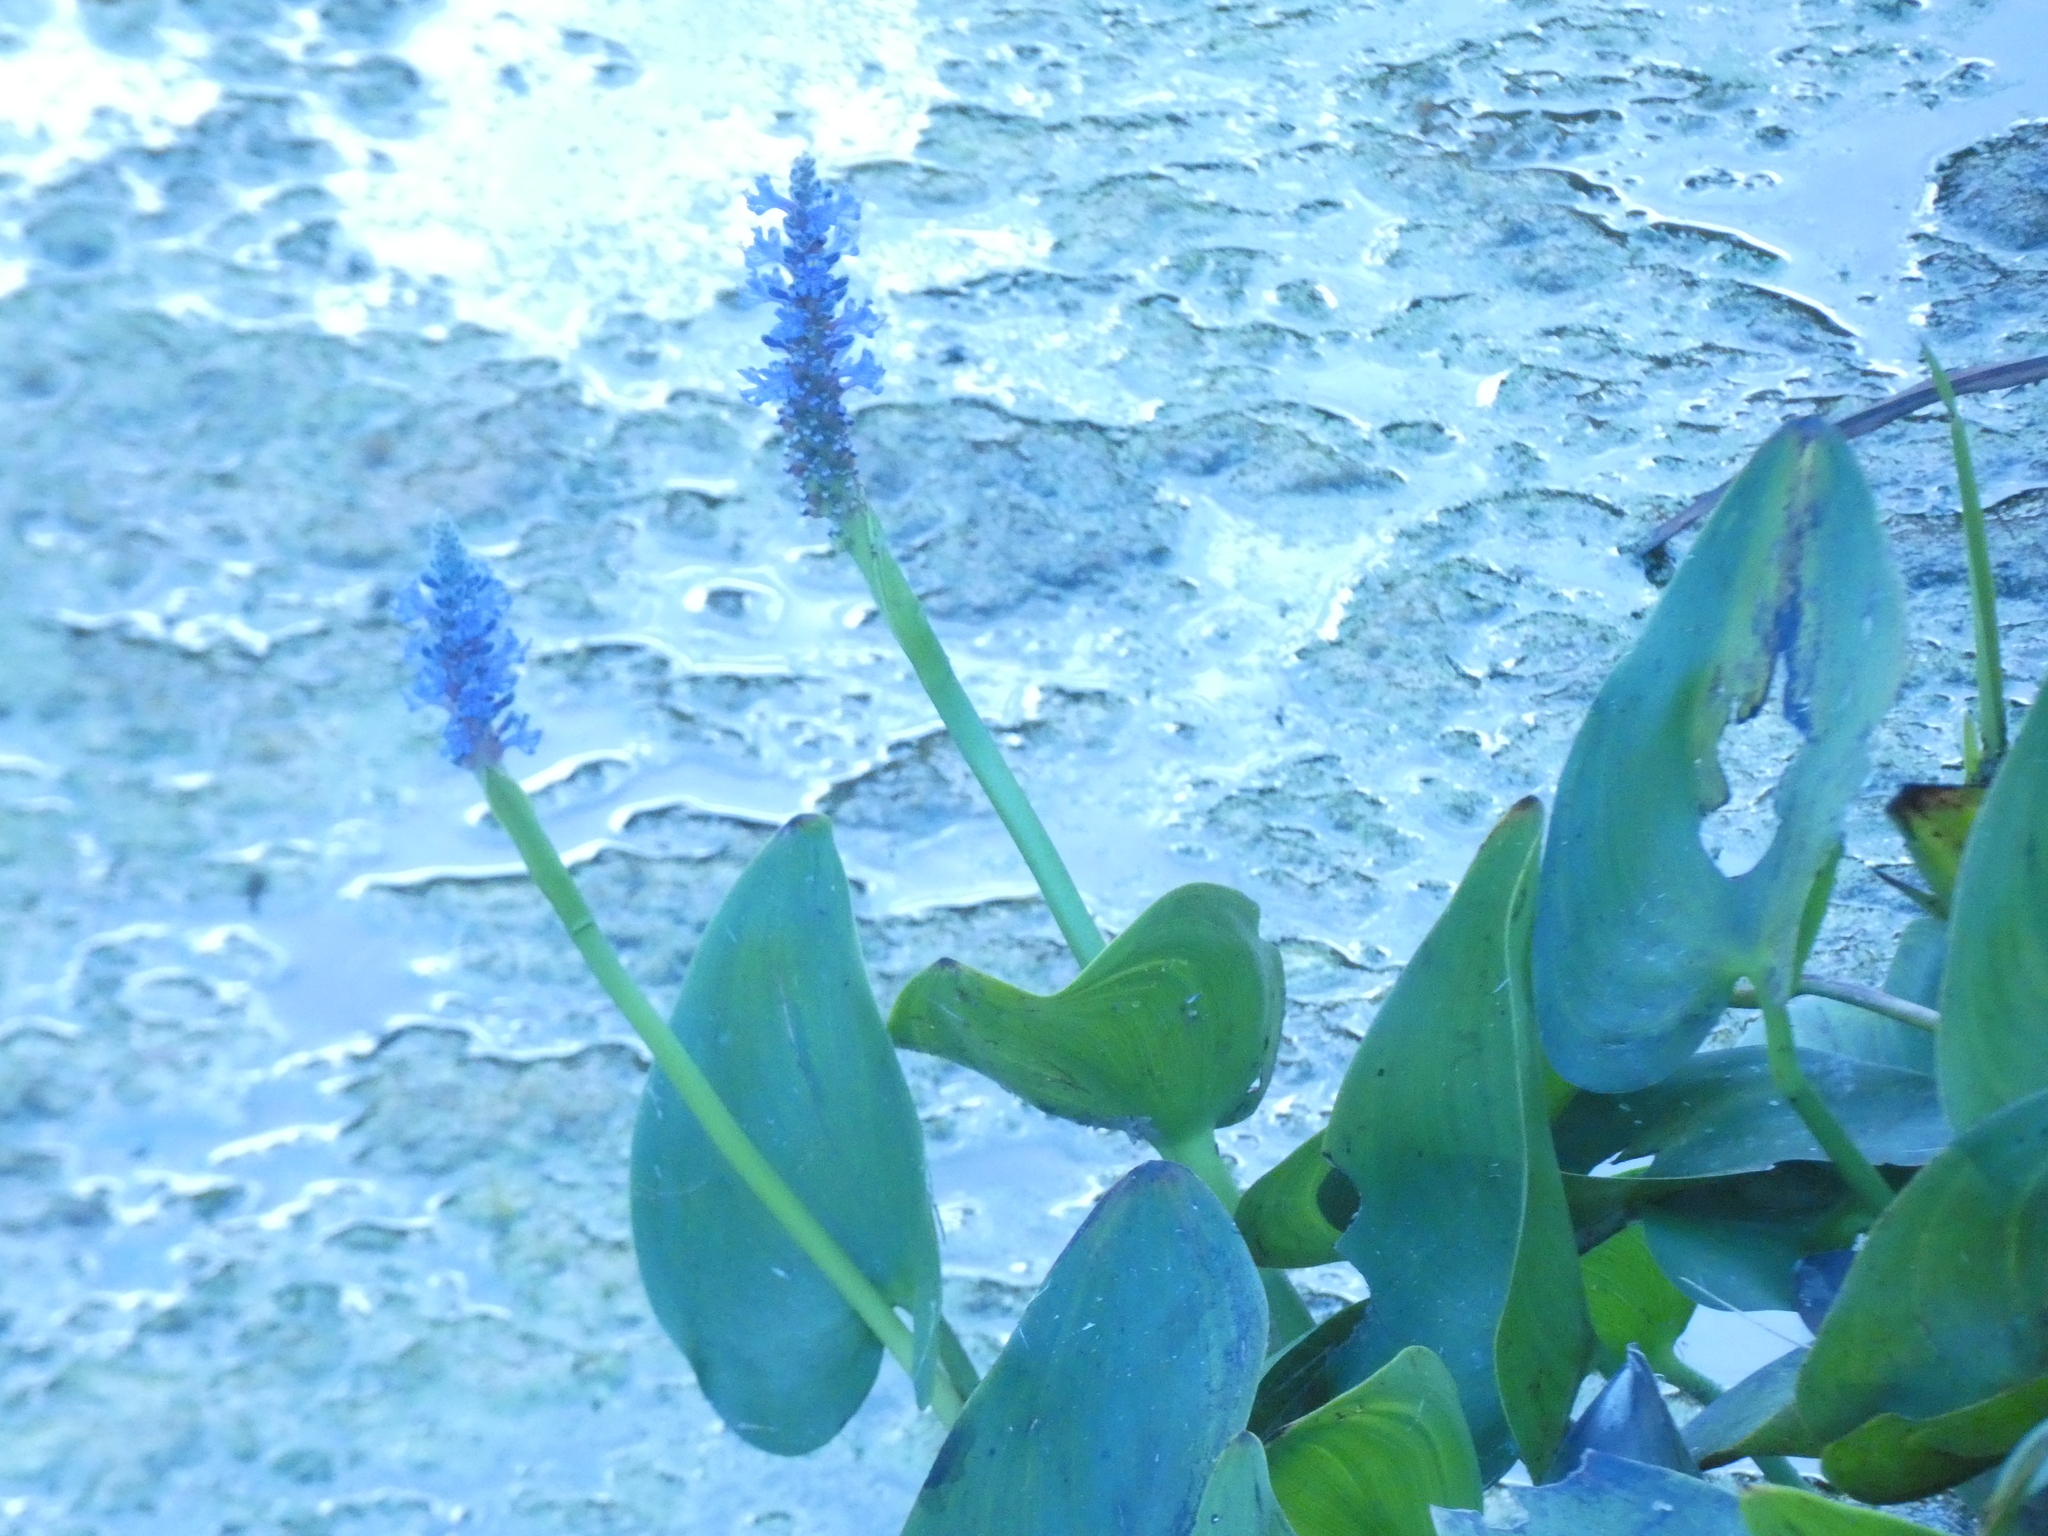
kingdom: Plantae
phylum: Tracheophyta
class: Liliopsida
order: Commelinales
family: Pontederiaceae
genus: Pontederia
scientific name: Pontederia cordata
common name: Pickerelweed
